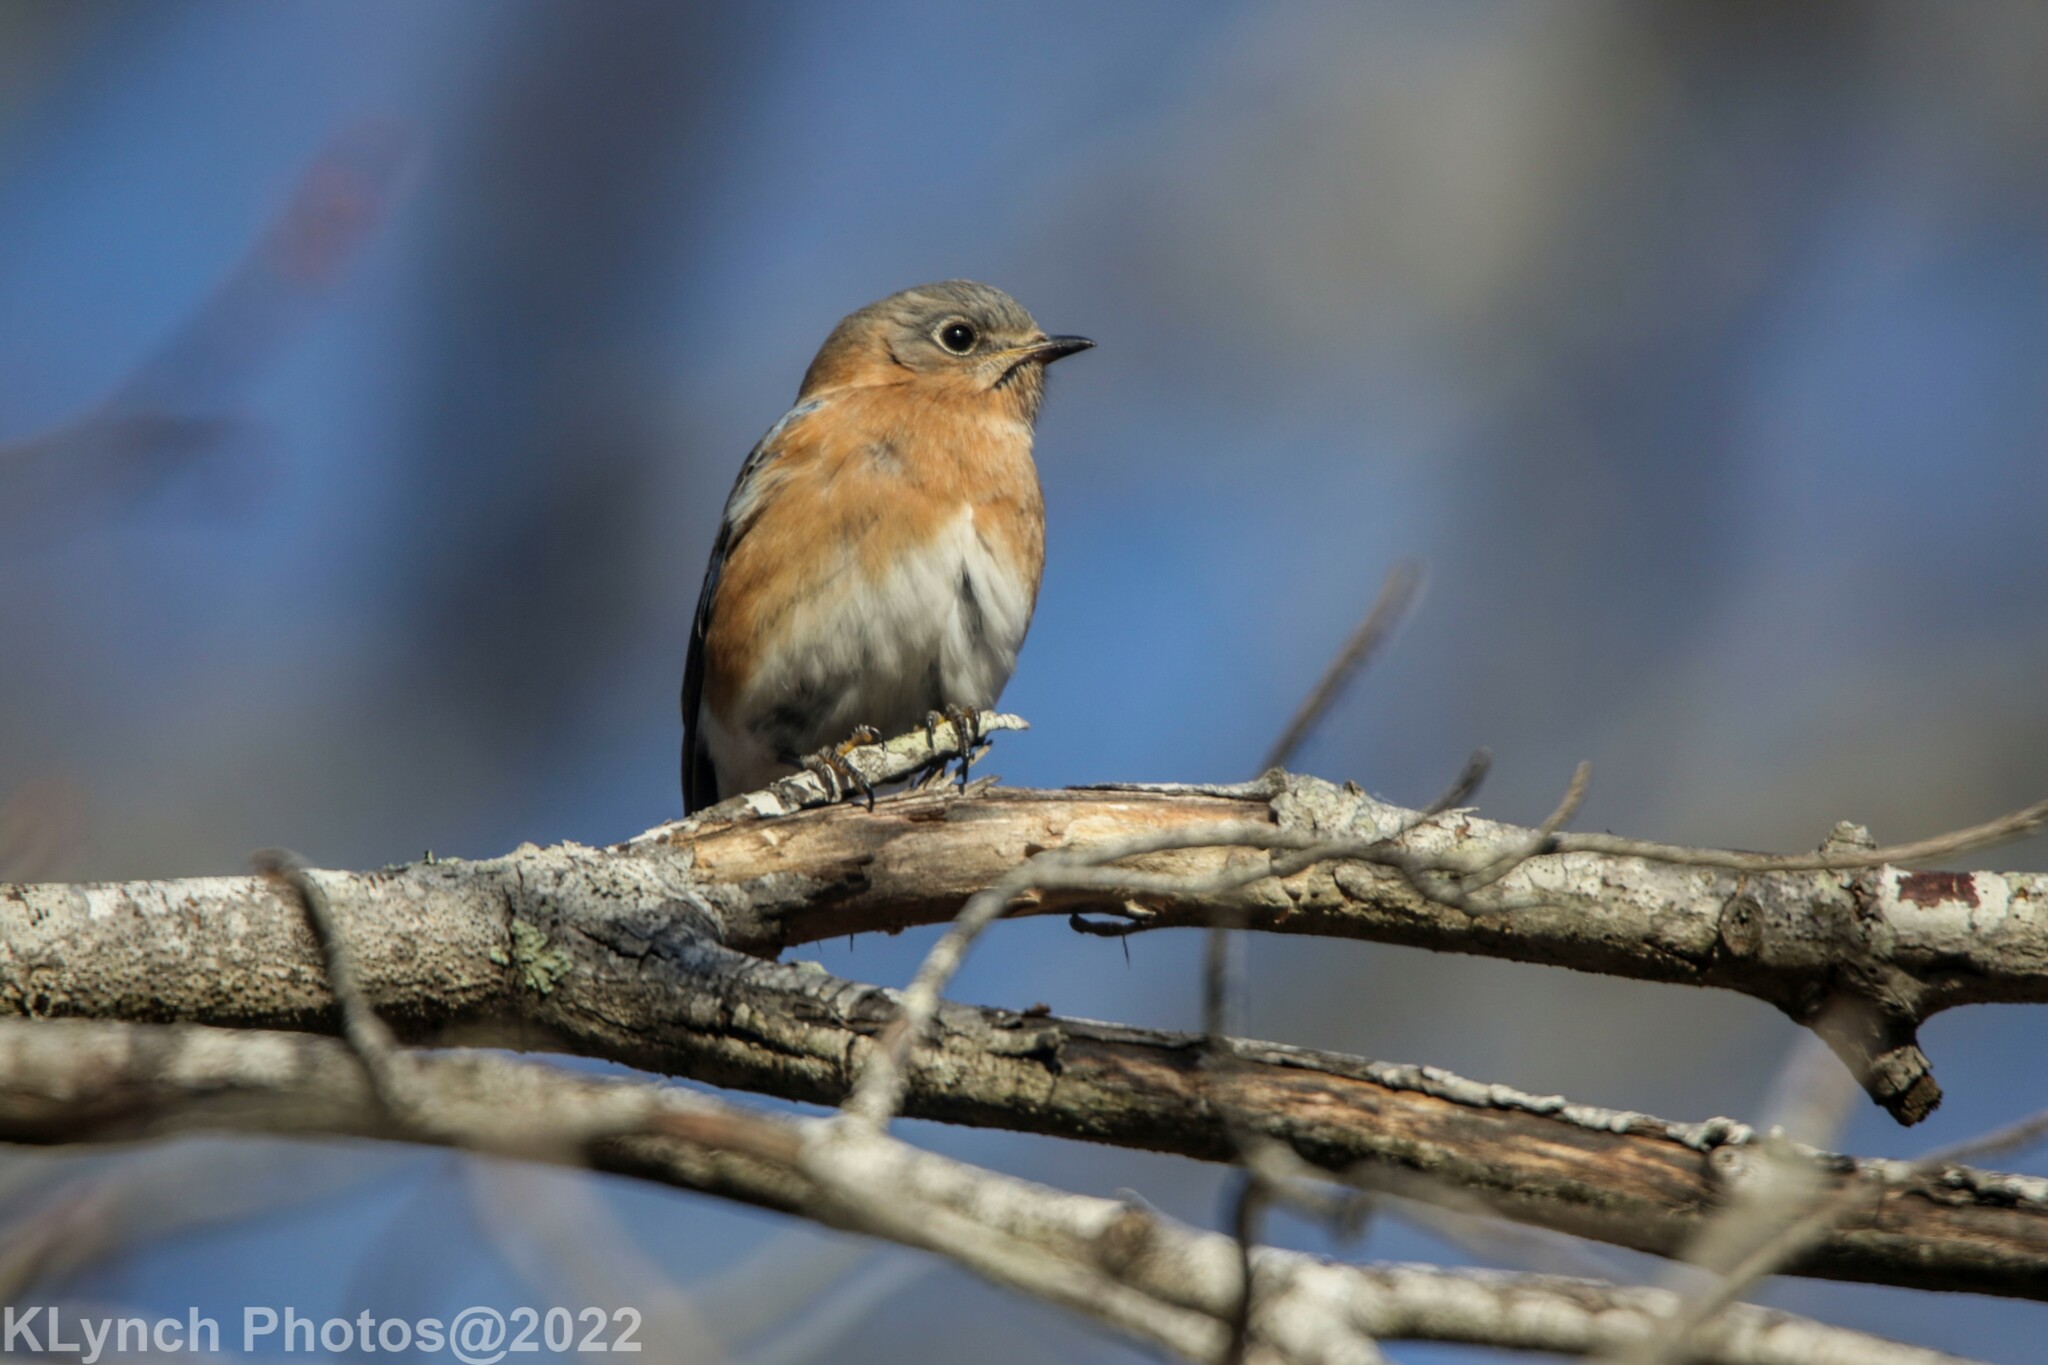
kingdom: Animalia
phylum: Chordata
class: Aves
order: Passeriformes
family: Turdidae
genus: Sialia
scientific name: Sialia sialis
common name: Eastern bluebird
